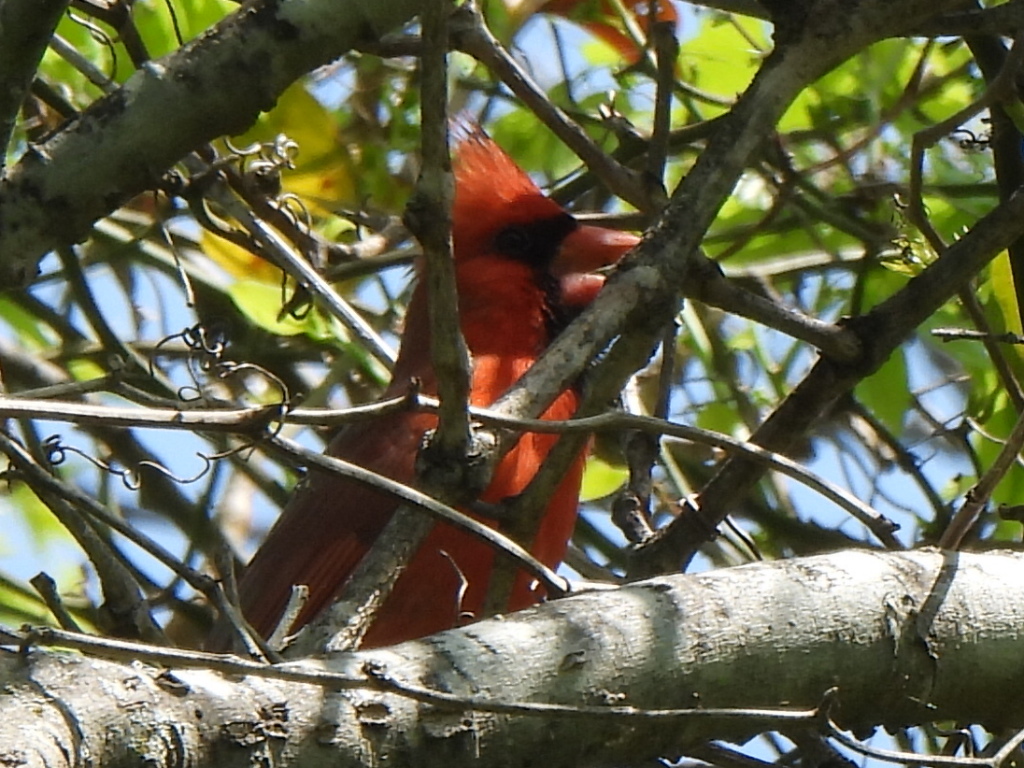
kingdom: Animalia
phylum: Chordata
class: Aves
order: Passeriformes
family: Cardinalidae
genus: Cardinalis
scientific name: Cardinalis cardinalis
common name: Northern cardinal
